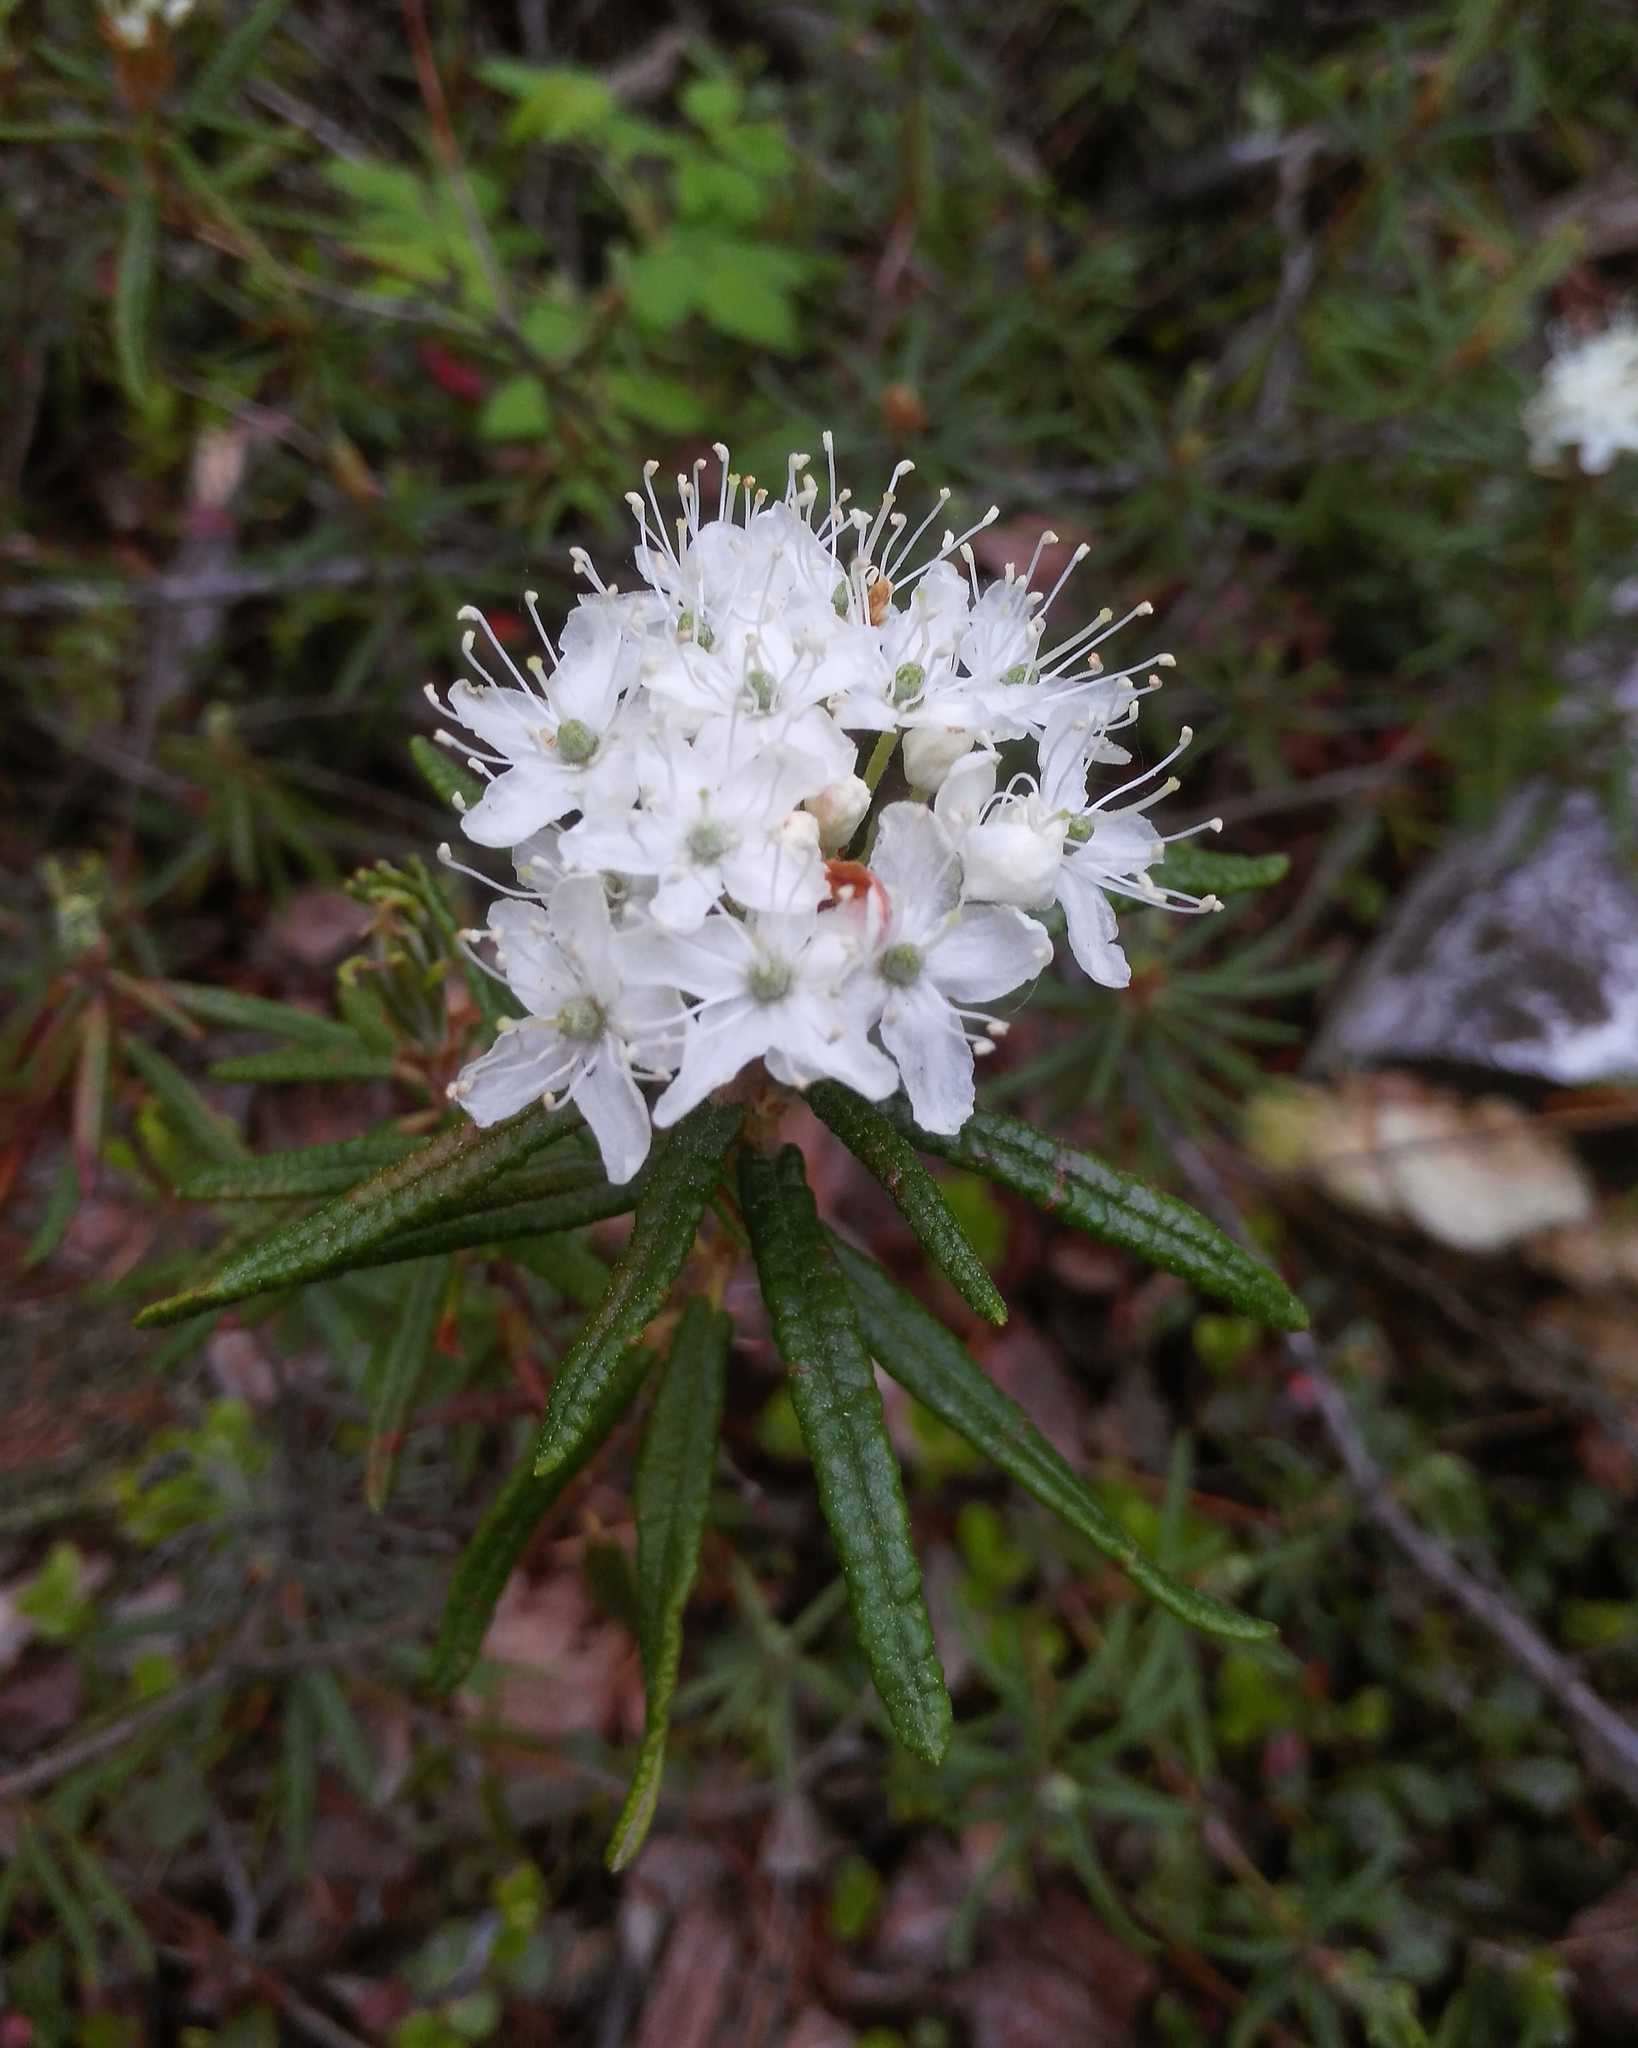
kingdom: Plantae
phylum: Tracheophyta
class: Magnoliopsida
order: Ericales
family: Ericaceae
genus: Rhododendron
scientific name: Rhododendron tomentosum
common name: Marsh labrador tea
